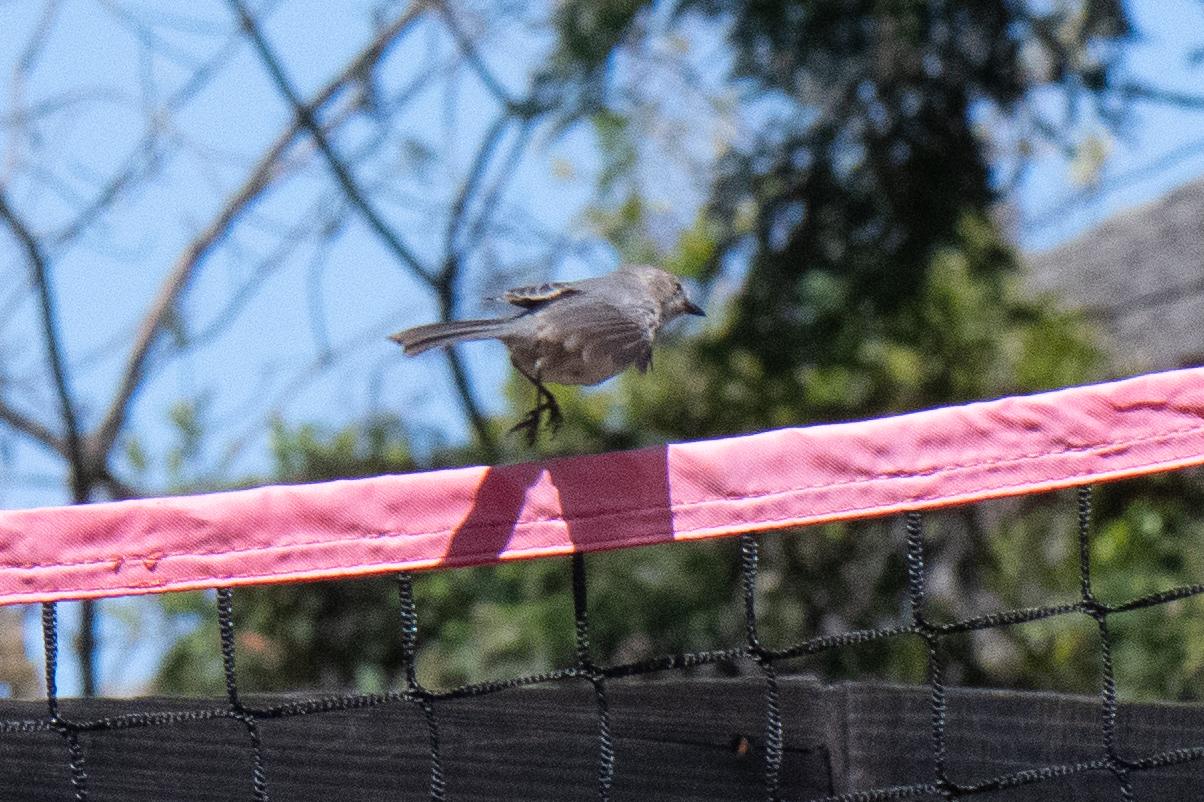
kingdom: Animalia
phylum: Chordata
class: Aves
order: Passeriformes
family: Aegithalidae
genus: Psaltriparus
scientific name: Psaltriparus minimus
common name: American bushtit
